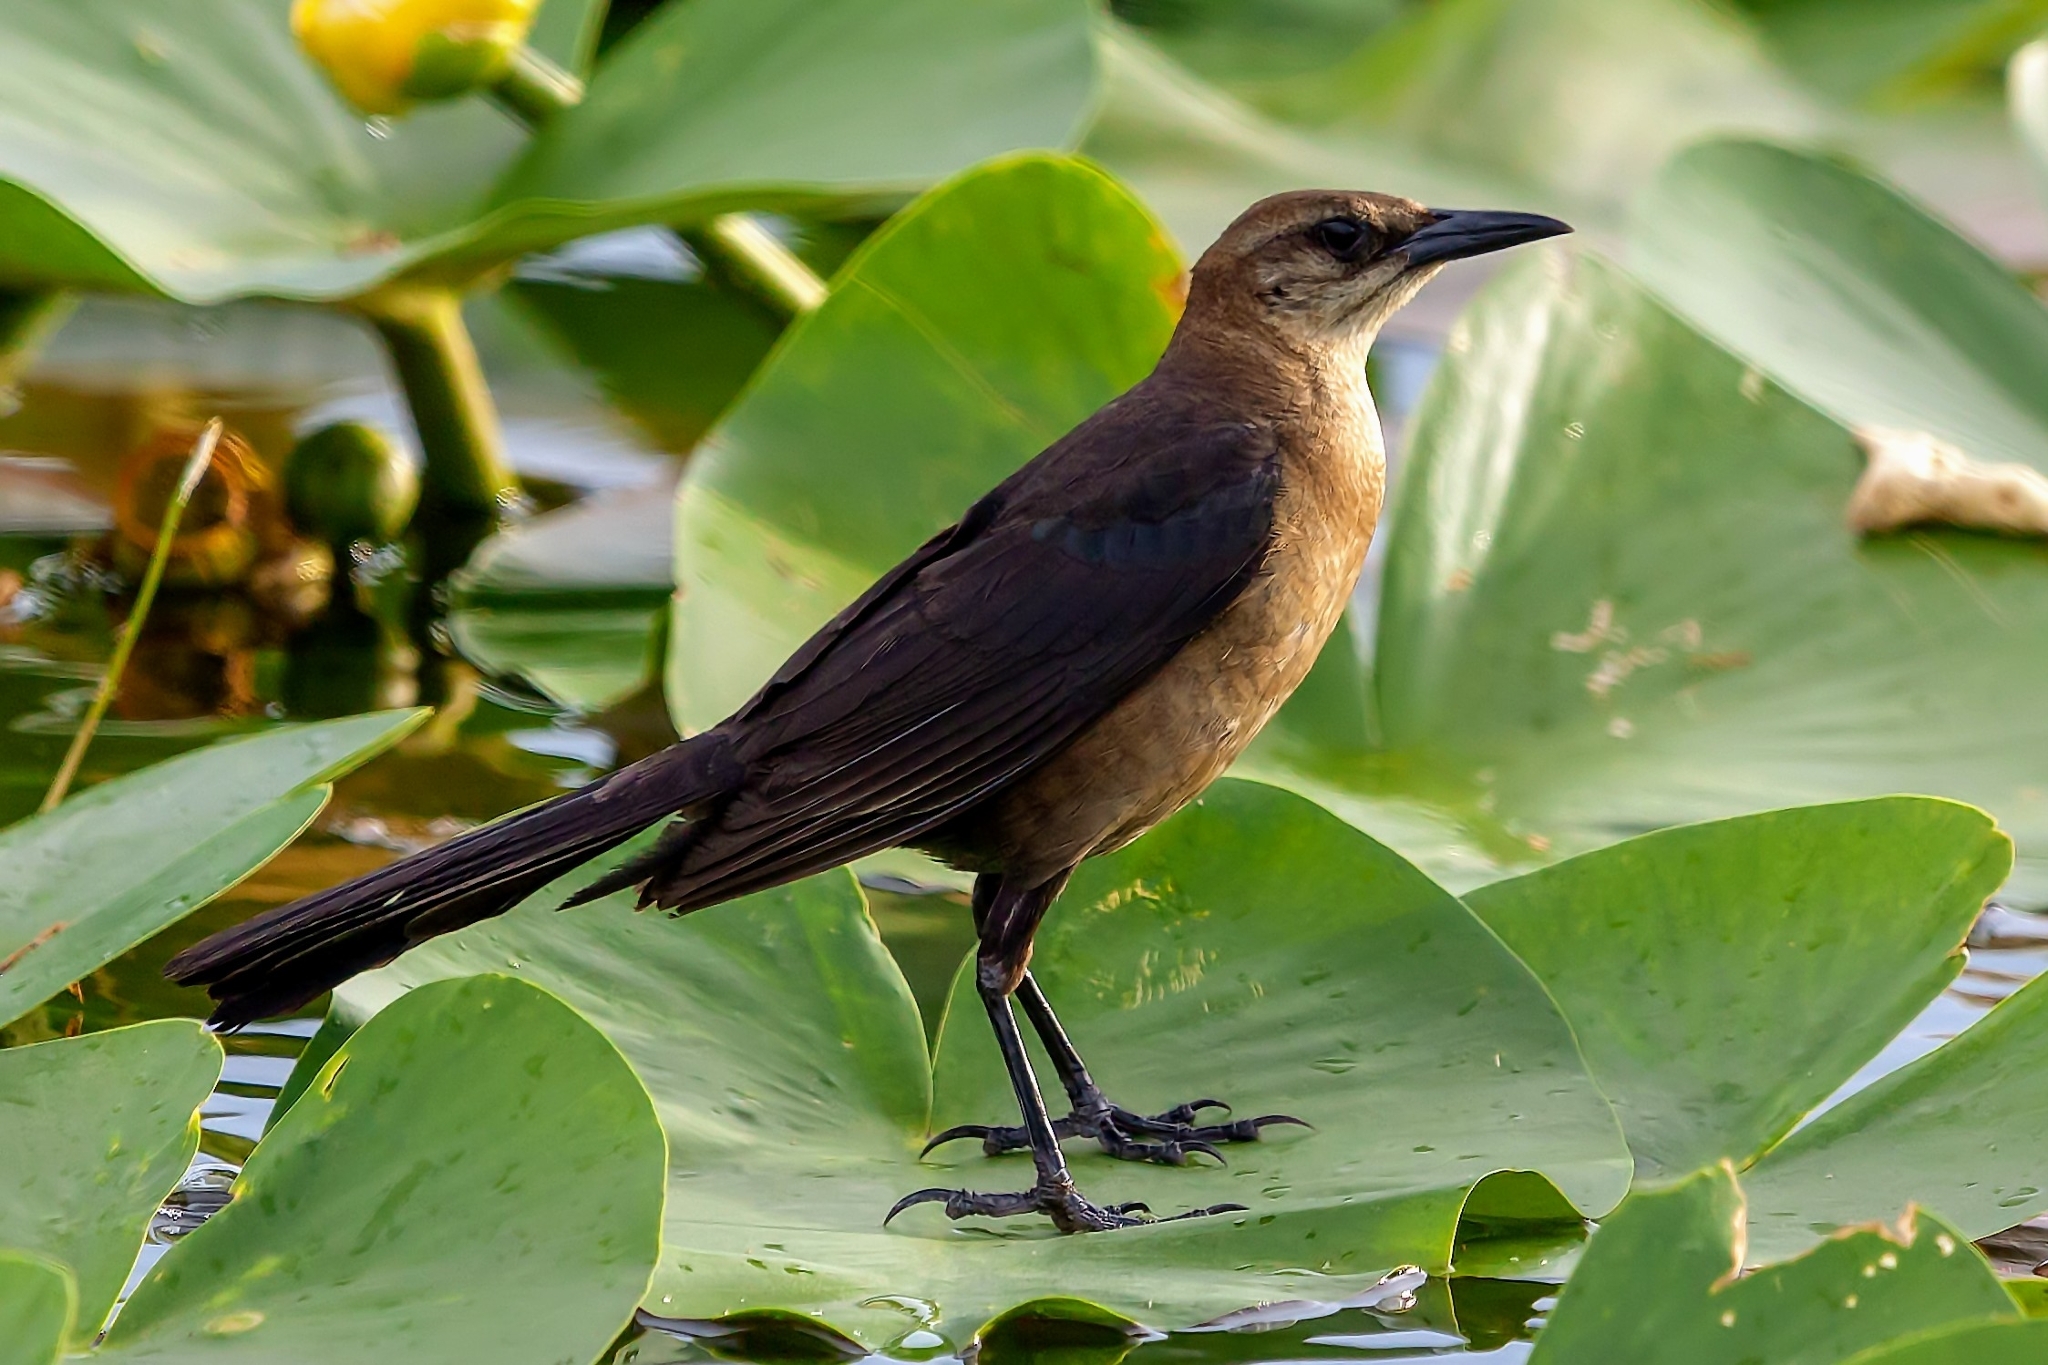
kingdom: Animalia
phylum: Chordata
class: Aves
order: Passeriformes
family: Icteridae
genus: Quiscalus
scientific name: Quiscalus major
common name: Boat-tailed grackle
